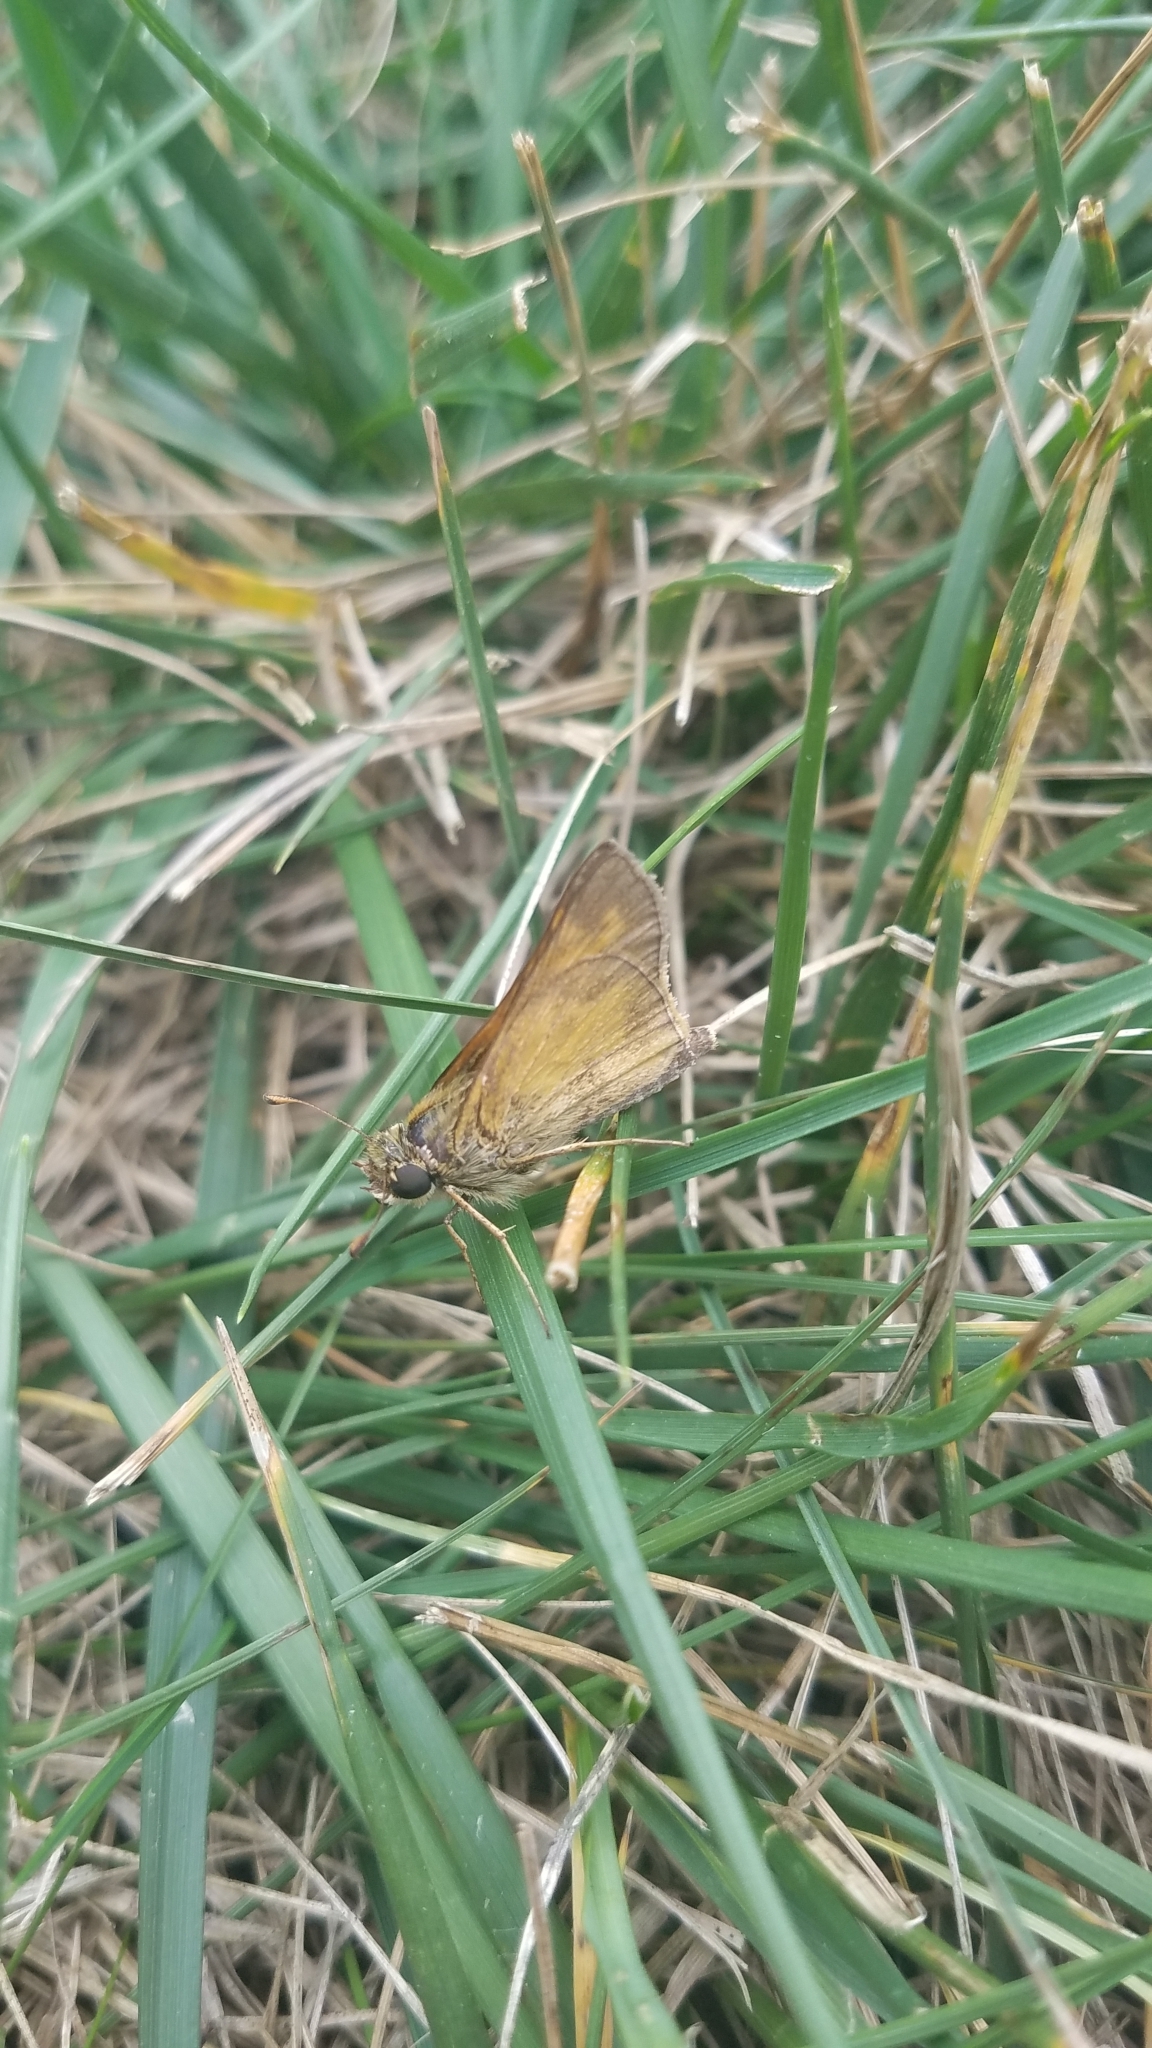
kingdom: Animalia
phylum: Arthropoda
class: Insecta
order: Lepidoptera
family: Hesperiidae
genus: Atalopedes
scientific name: Atalopedes
